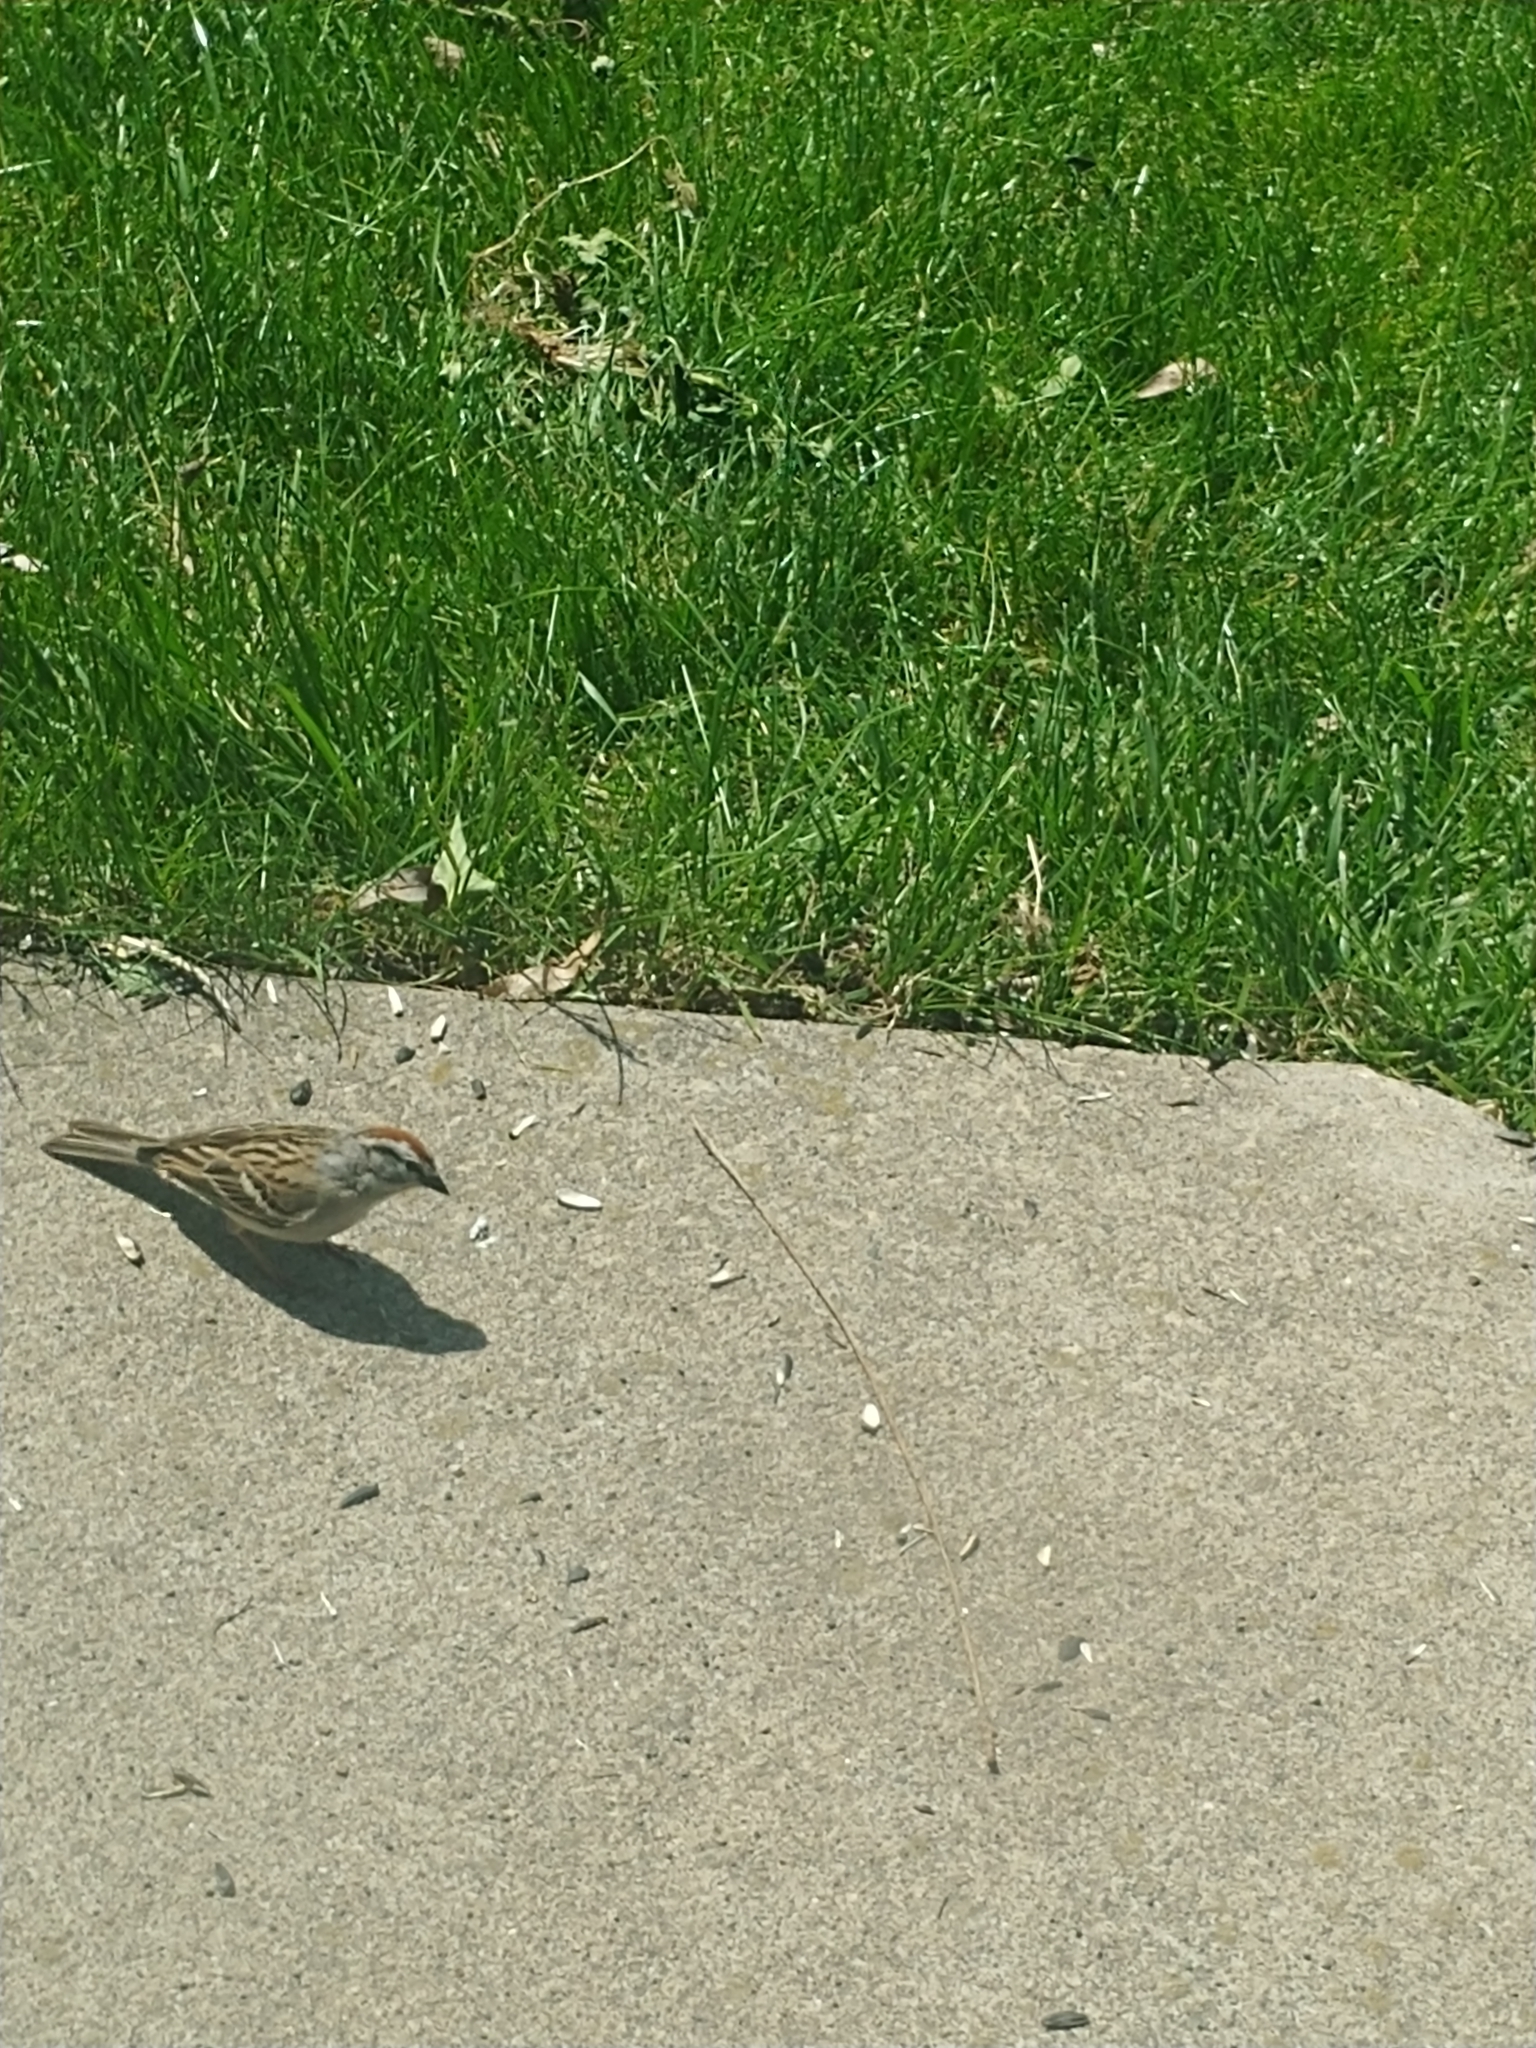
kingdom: Animalia
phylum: Chordata
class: Aves
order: Passeriformes
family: Passerellidae
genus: Spizella
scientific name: Spizella passerina
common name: Chipping sparrow
